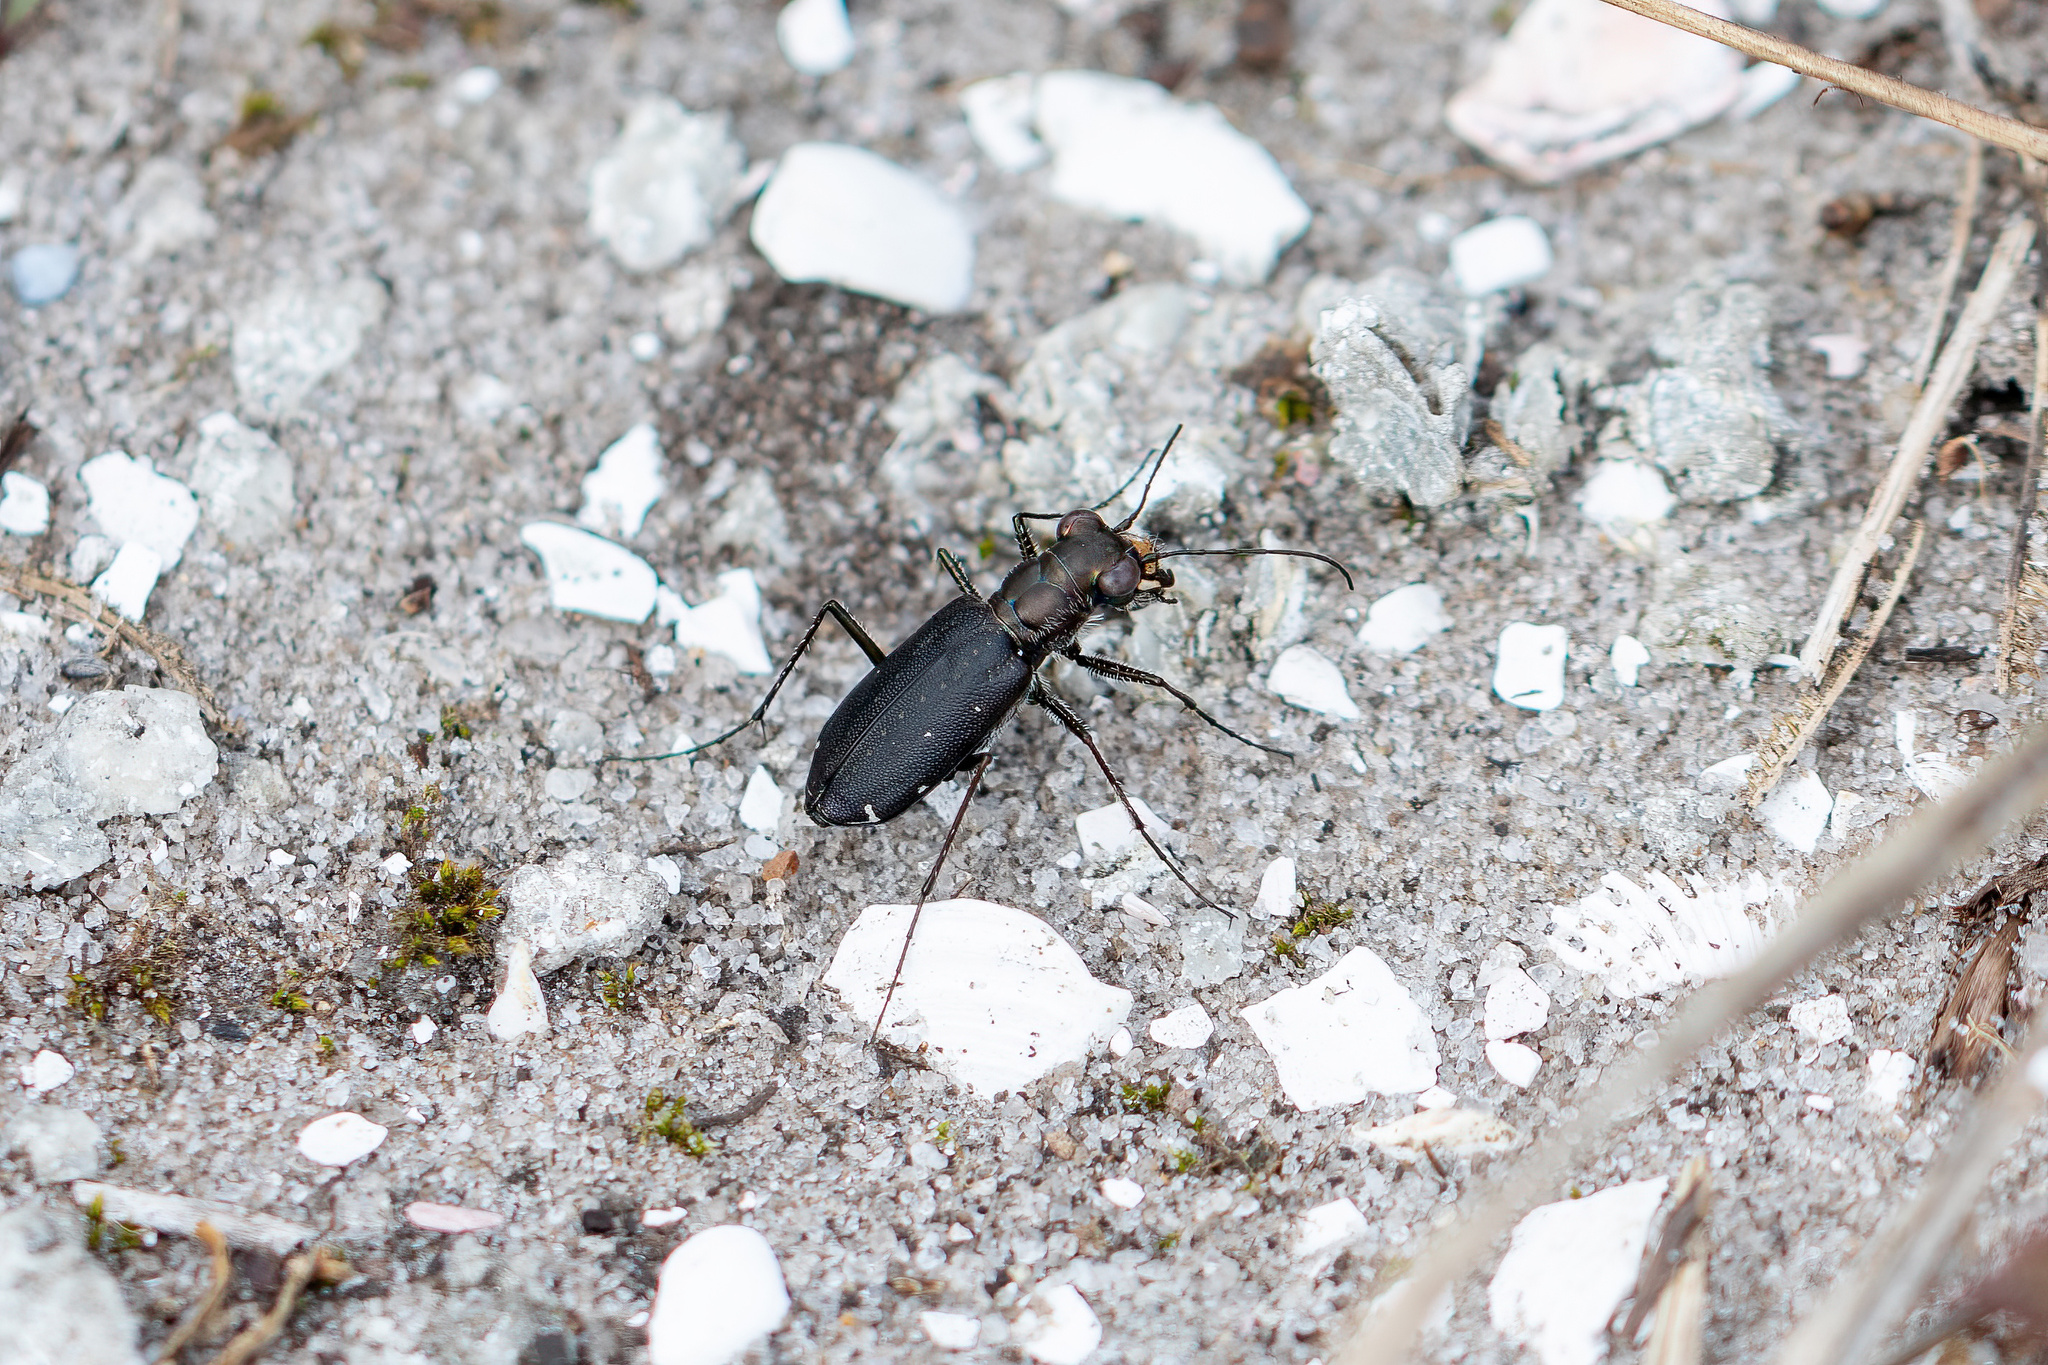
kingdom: Animalia
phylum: Arthropoda
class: Insecta
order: Coleoptera
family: Carabidae
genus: Cicindela
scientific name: Cicindela punctulata
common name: Punctured tiger beetle
